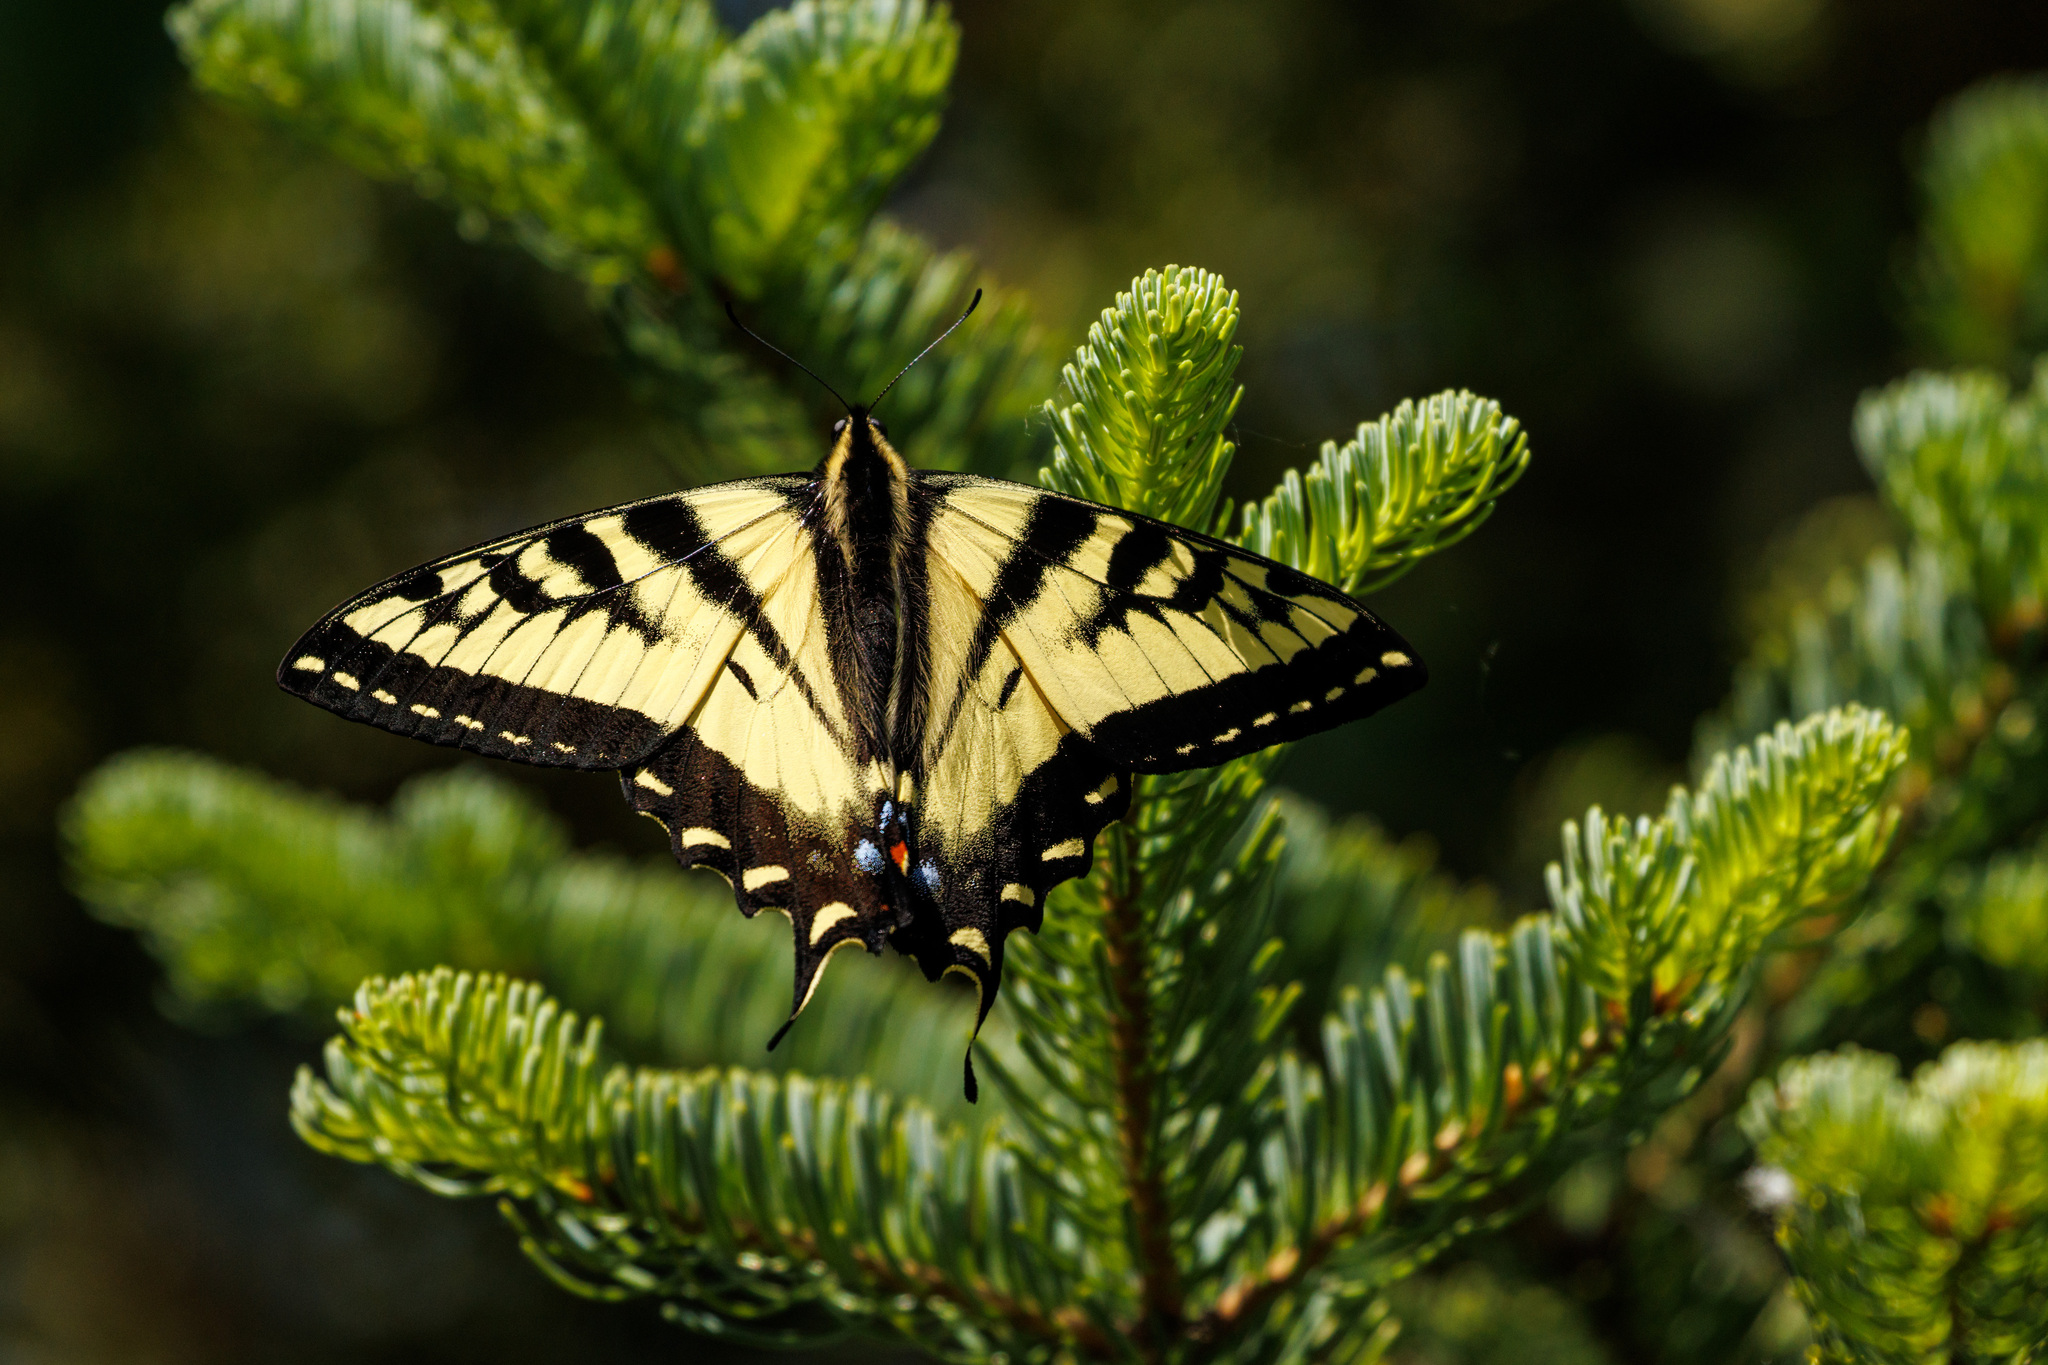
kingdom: Animalia
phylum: Arthropoda
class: Insecta
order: Lepidoptera
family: Papilionidae
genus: Papilio
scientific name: Papilio rutulus
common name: Western tiger swallowtail
